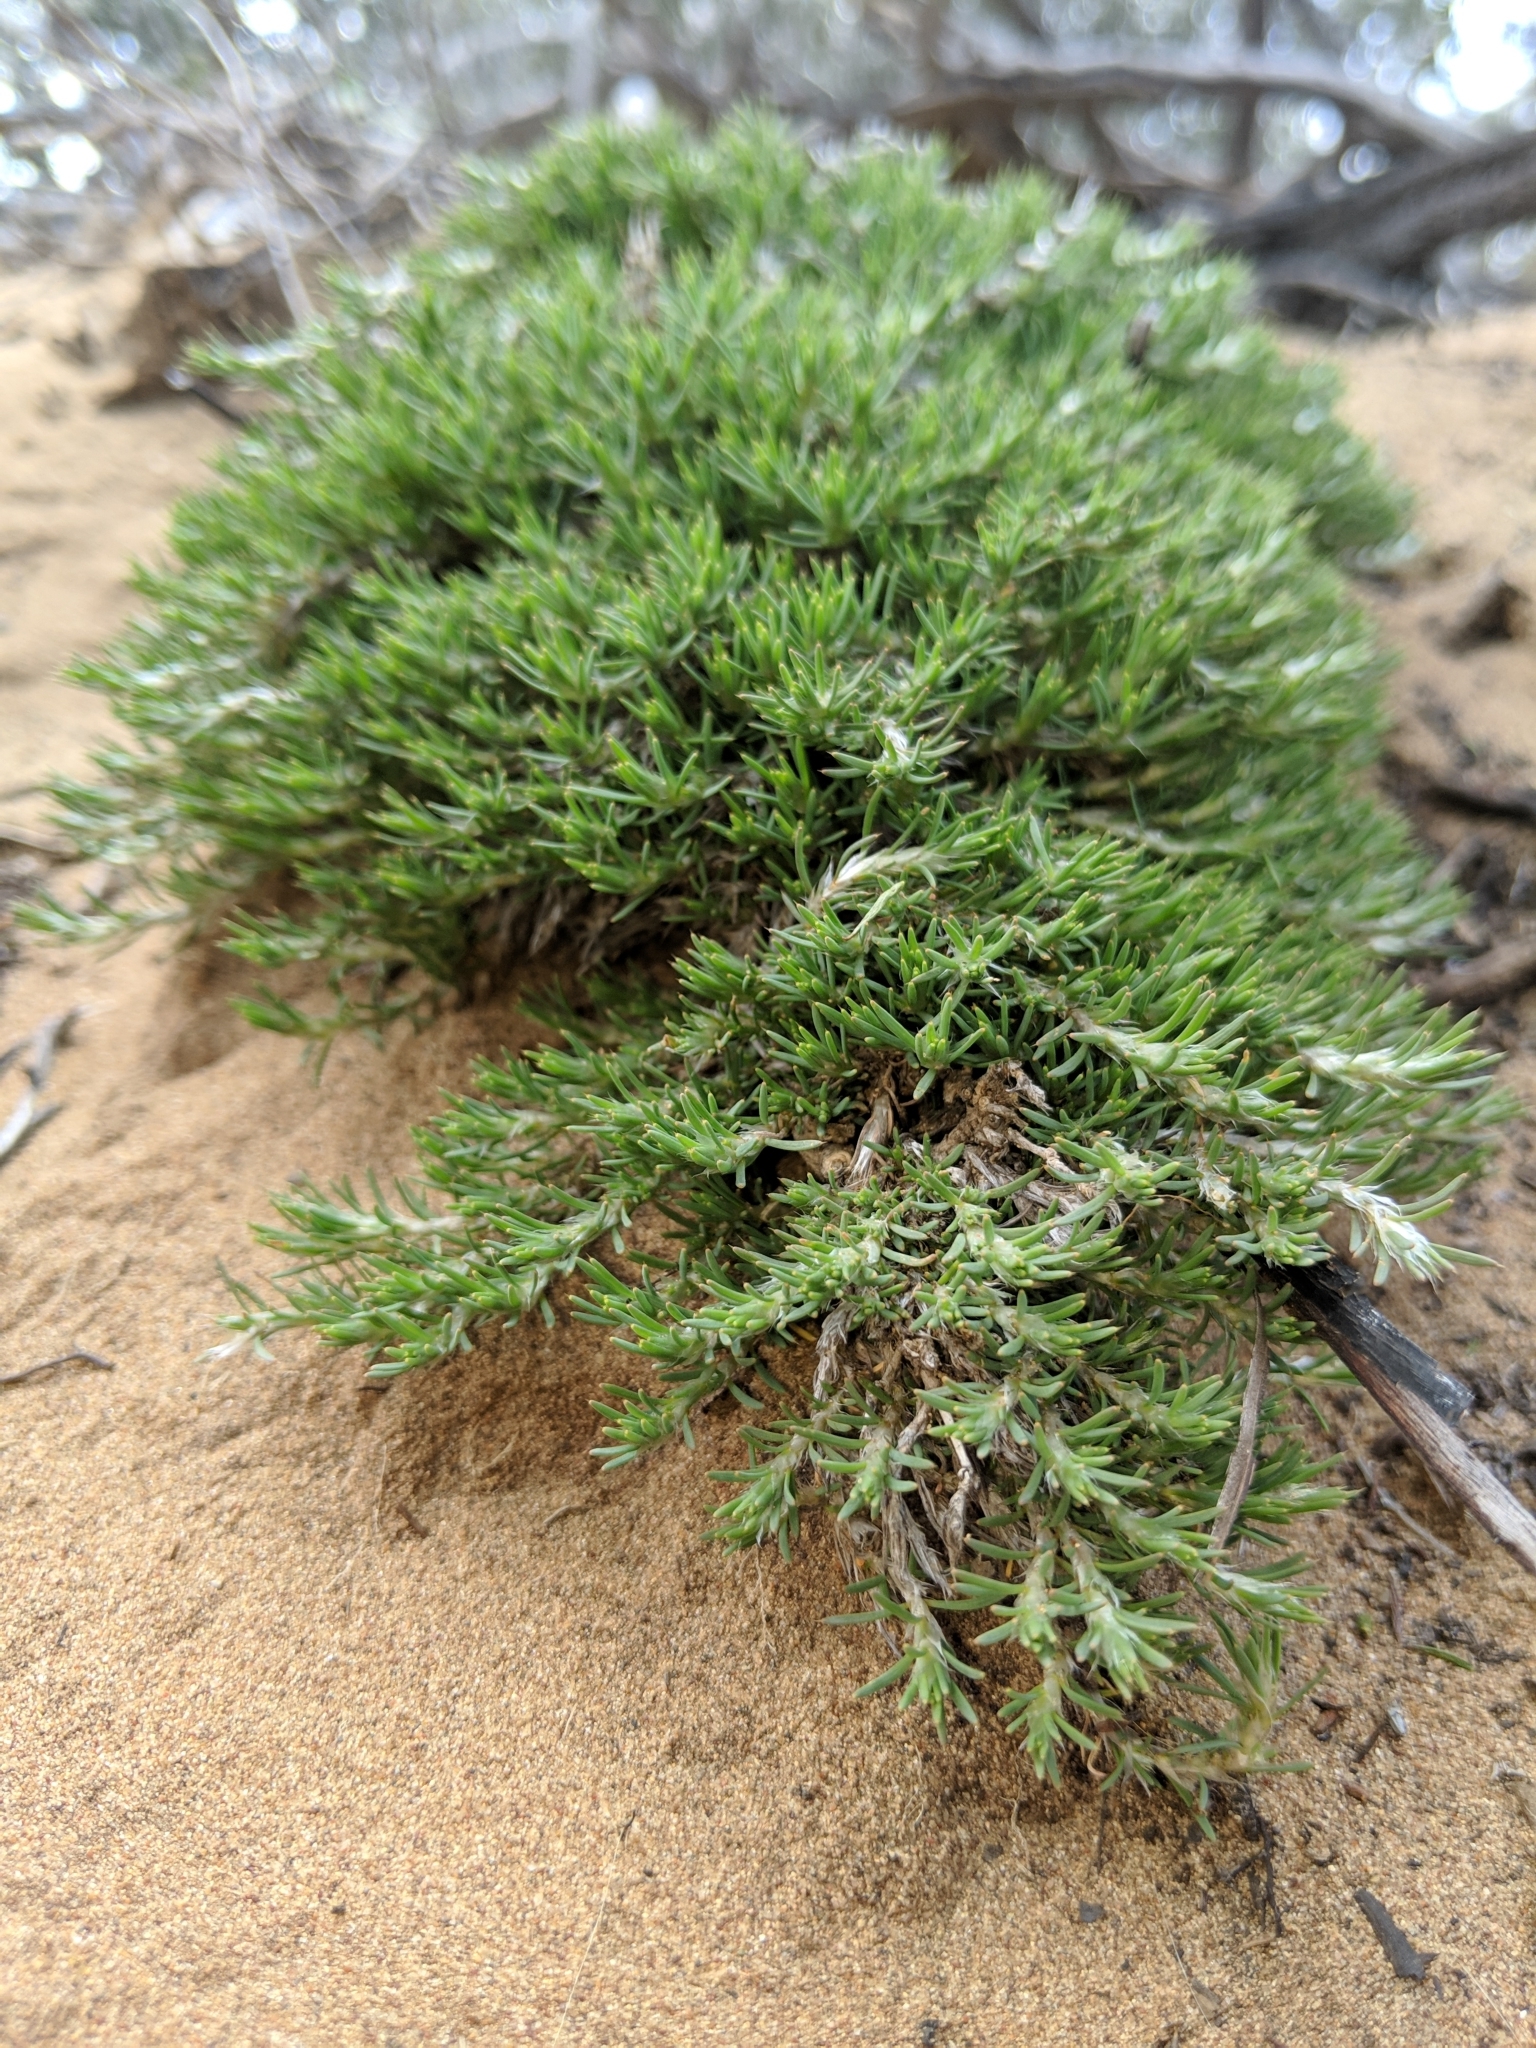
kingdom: Plantae
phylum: Tracheophyta
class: Magnoliopsida
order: Caryophyllales
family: Caryophyllaceae
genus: Cardionema
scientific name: Cardionema ramosissima
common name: Sandcarpet
